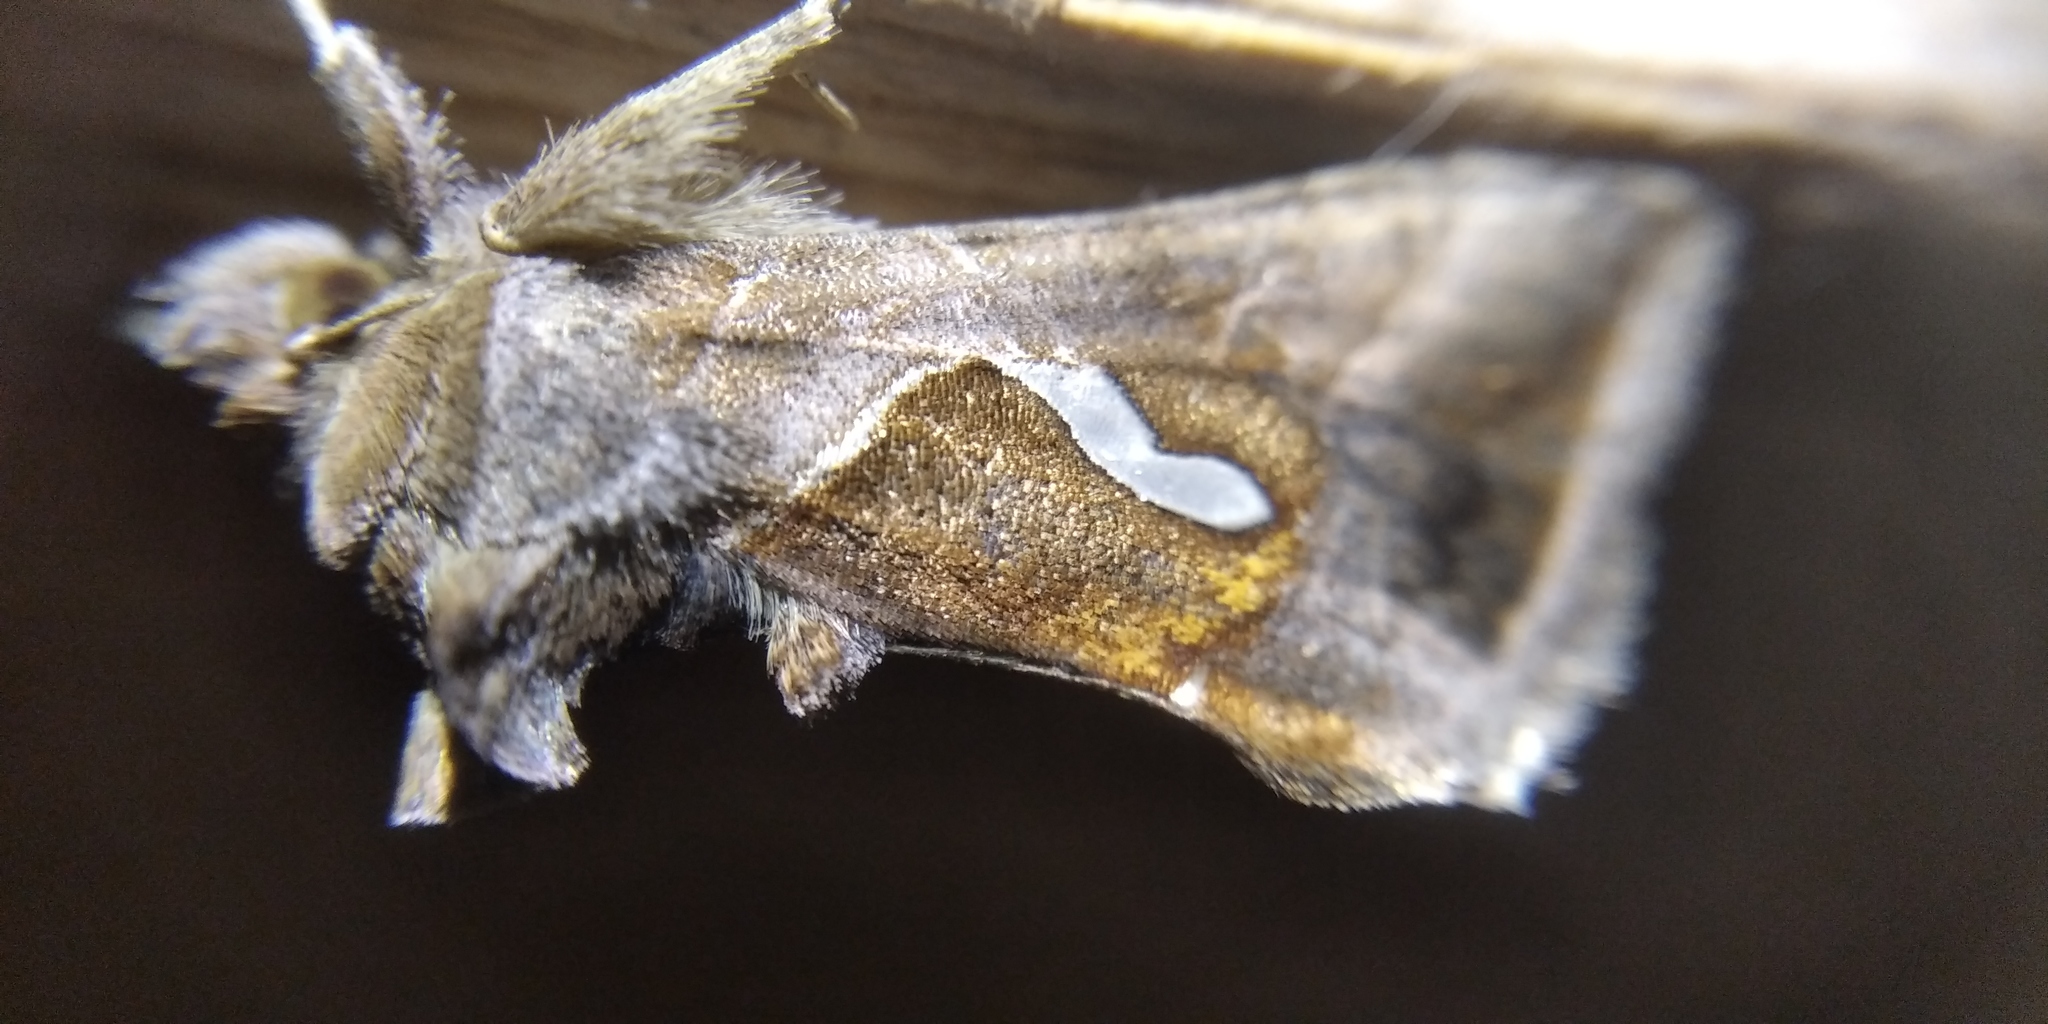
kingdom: Animalia
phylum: Arthropoda
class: Insecta
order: Lepidoptera
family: Noctuidae
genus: Macdunnoughia
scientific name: Macdunnoughia confusa
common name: Dewick's plusia
